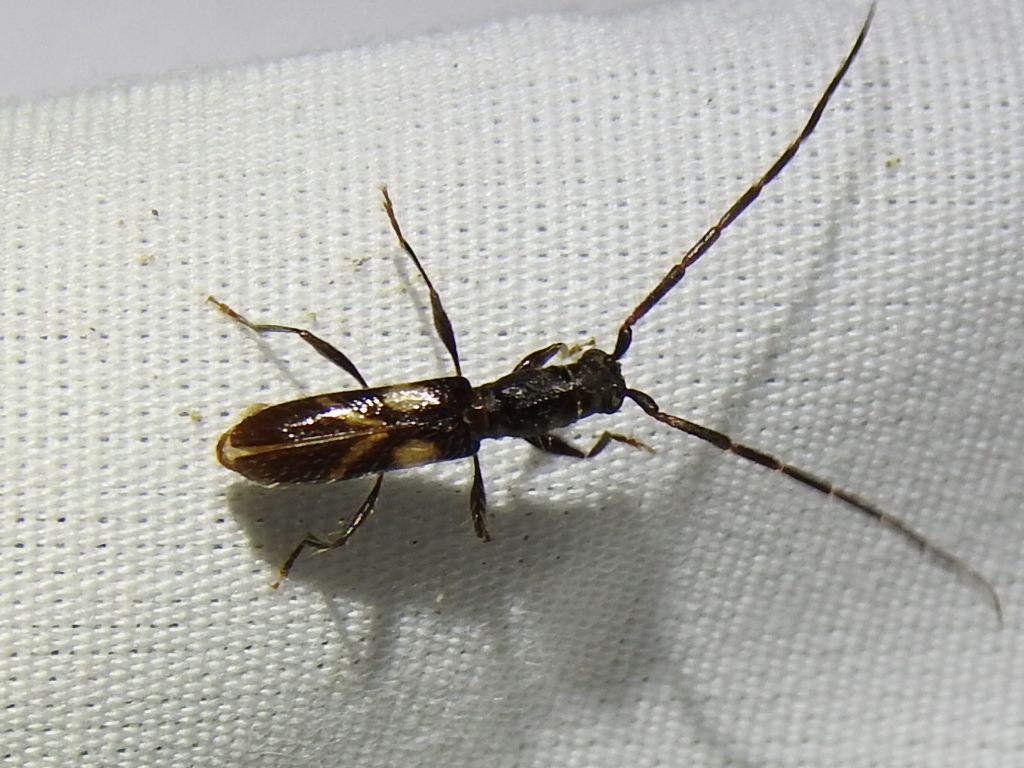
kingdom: Animalia
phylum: Arthropoda
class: Insecta
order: Coleoptera
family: Cerambycidae
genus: Heterachthes
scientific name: Heterachthes nobilis
